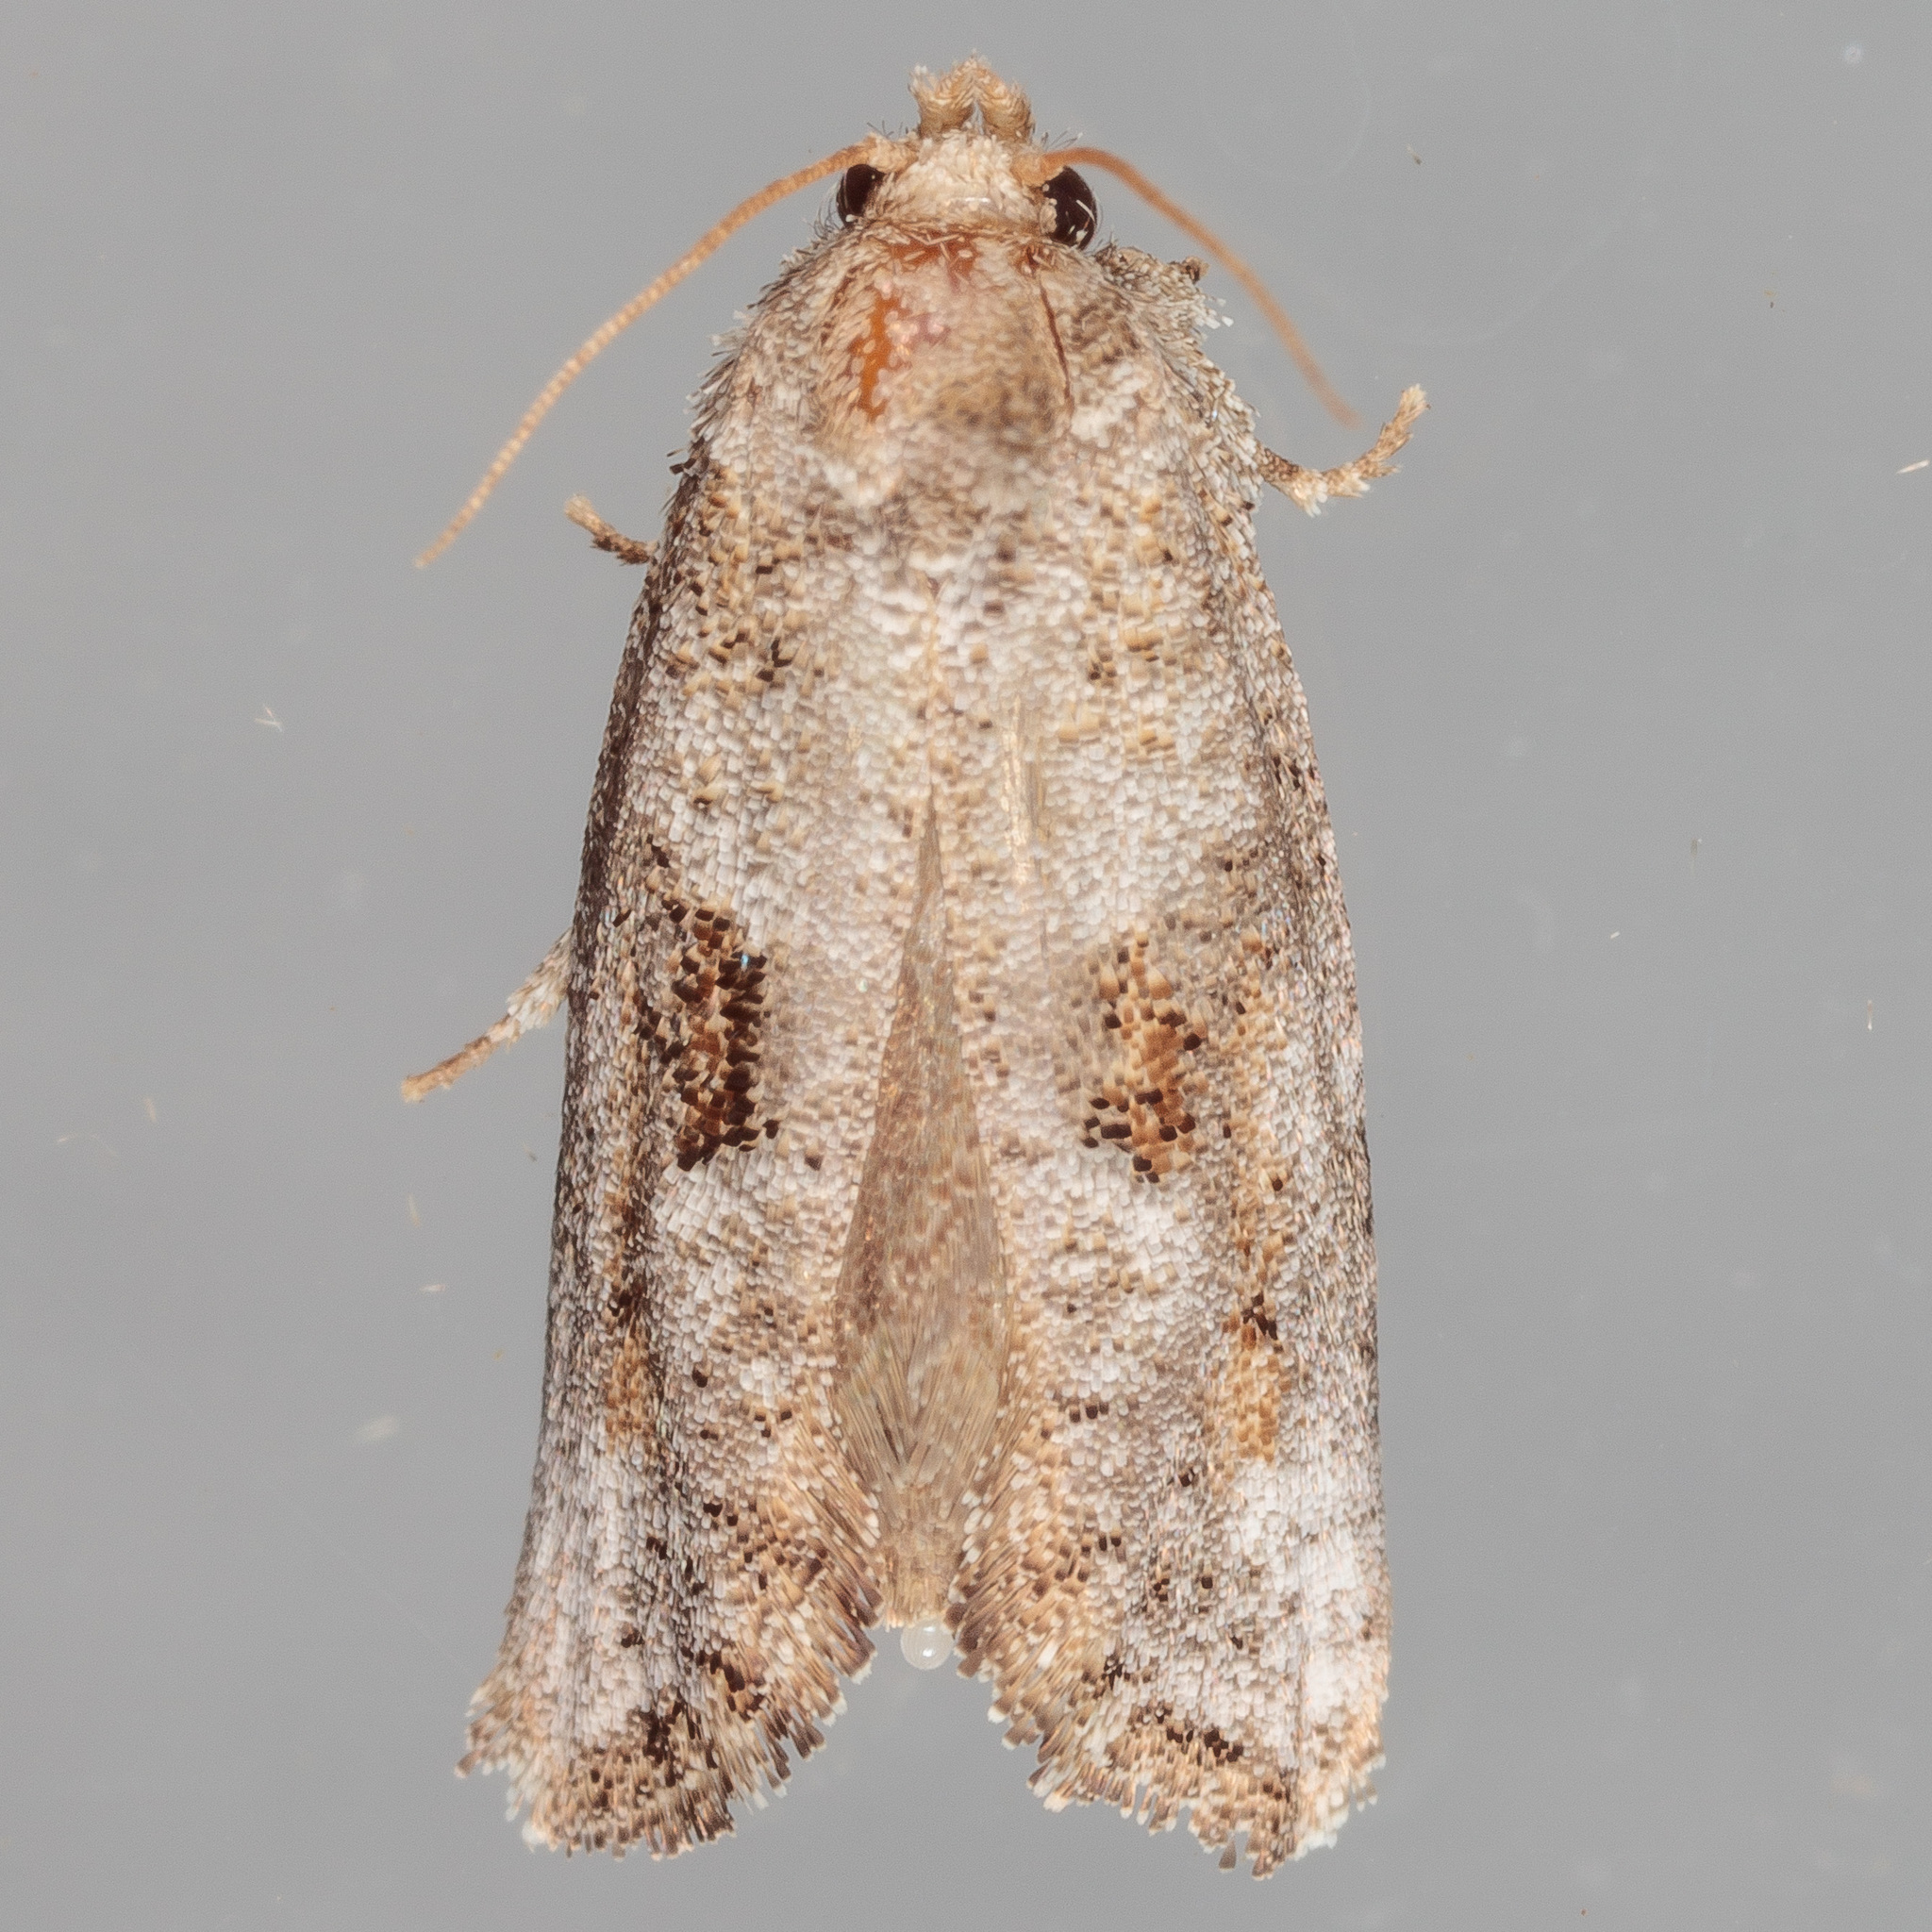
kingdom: Animalia
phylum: Arthropoda
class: Insecta
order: Lepidoptera
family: Tineidae
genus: Acrolophus
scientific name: Acrolophus piger
